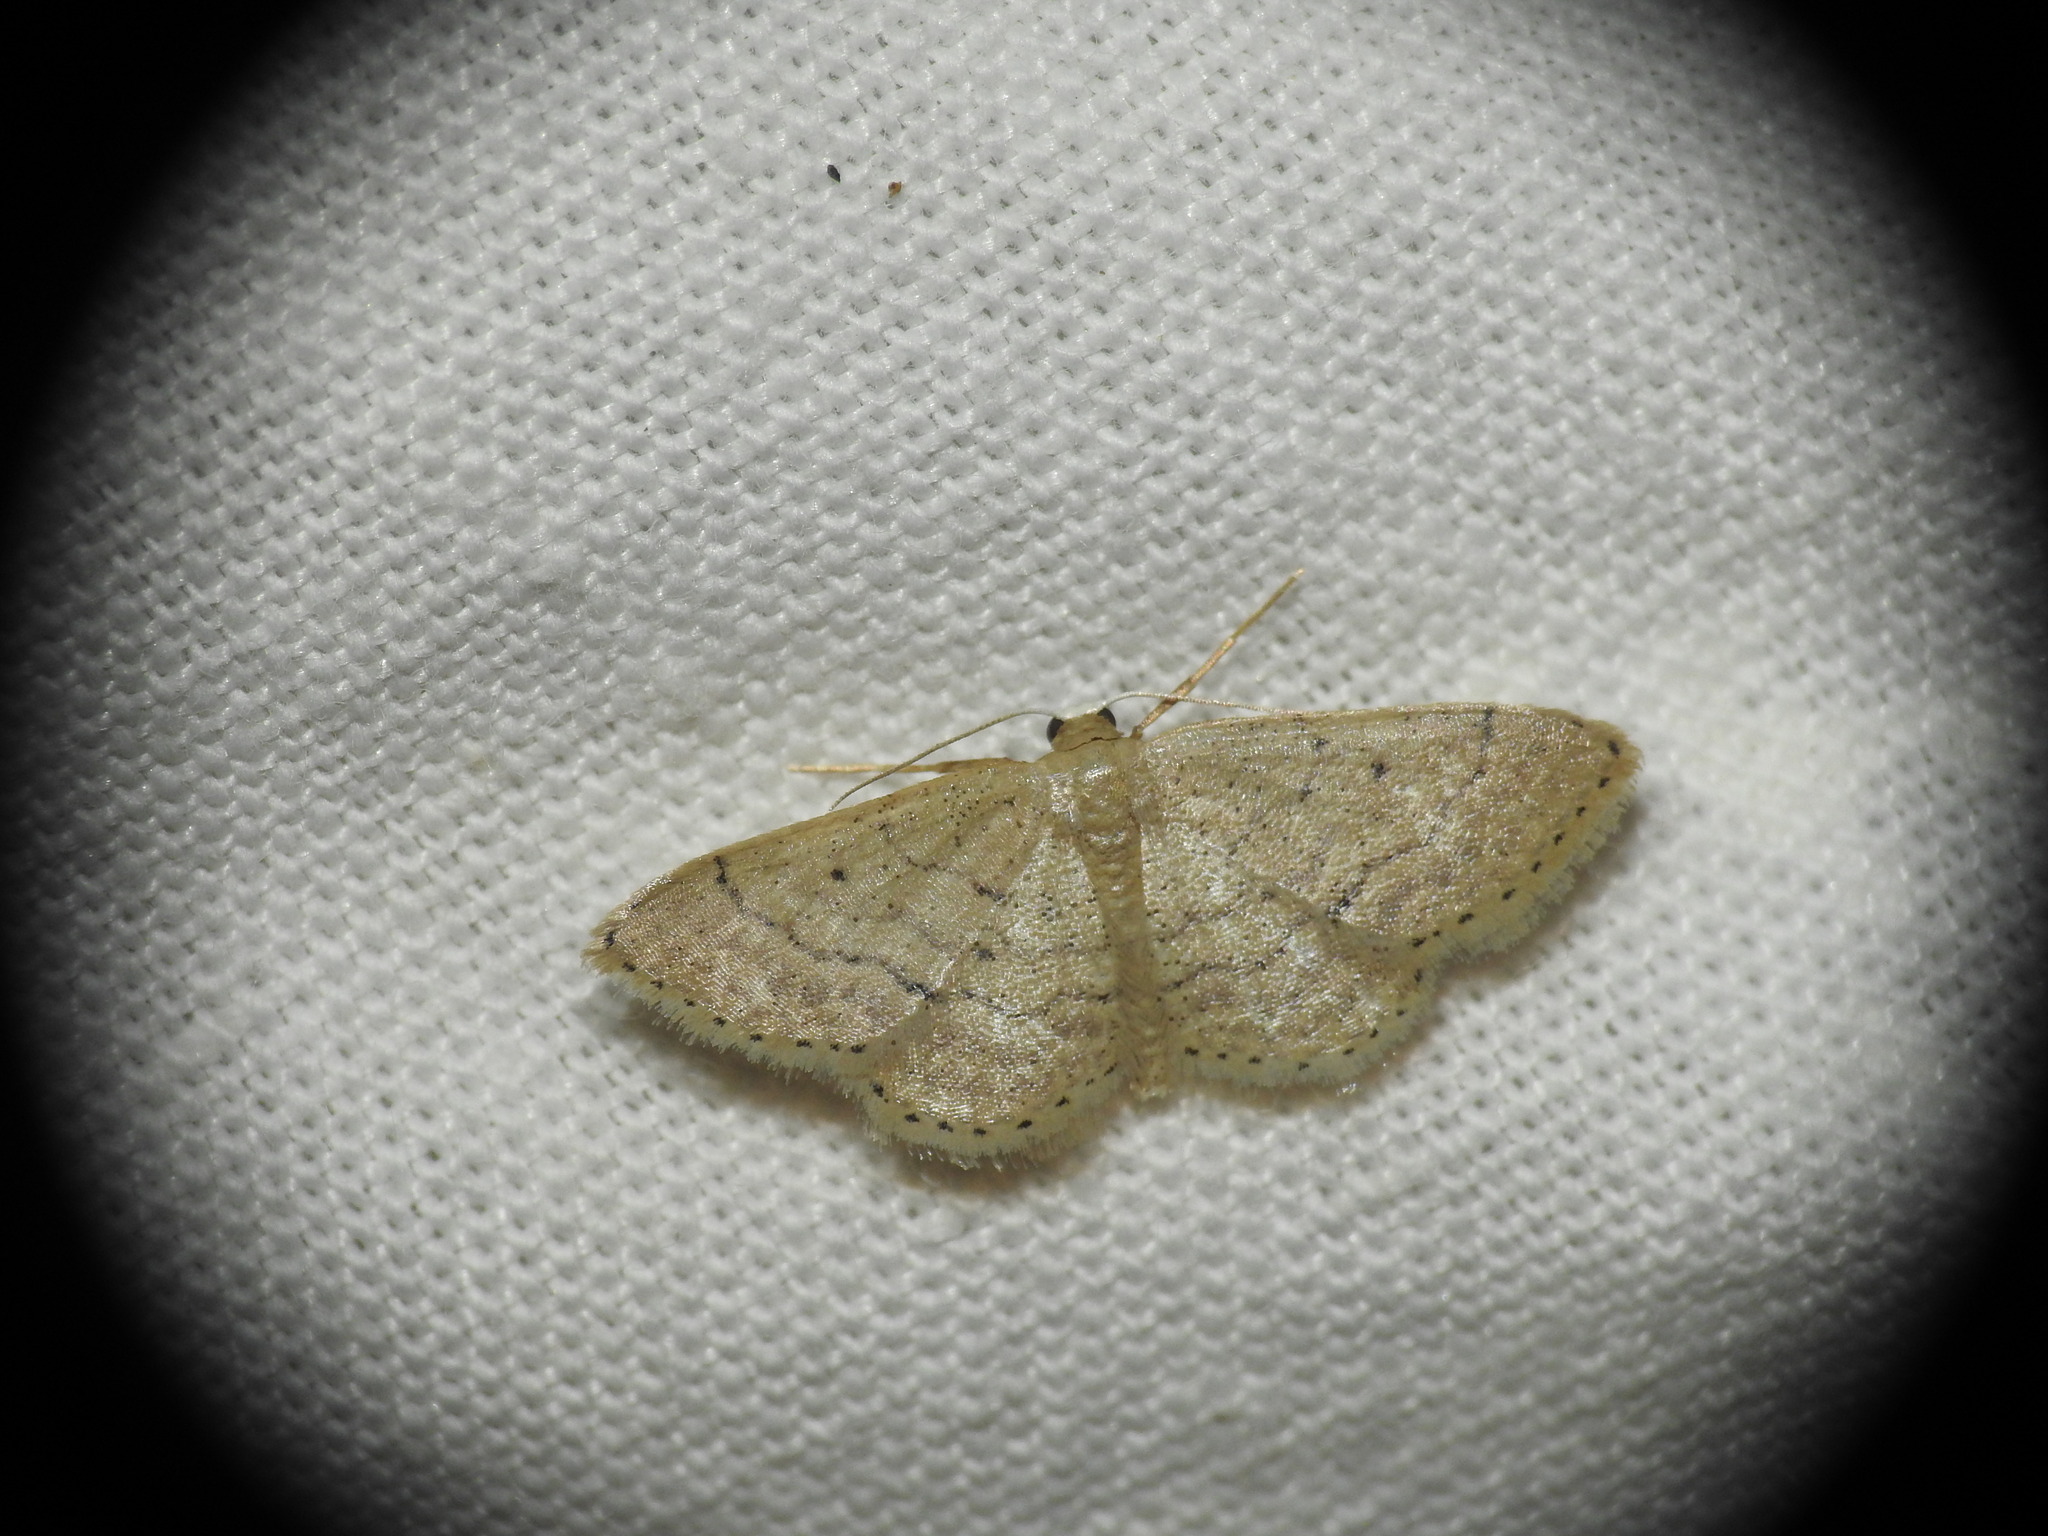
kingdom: Animalia
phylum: Arthropoda
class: Insecta
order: Lepidoptera
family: Geometridae
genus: Idaea
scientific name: Idaea obsoletaria
